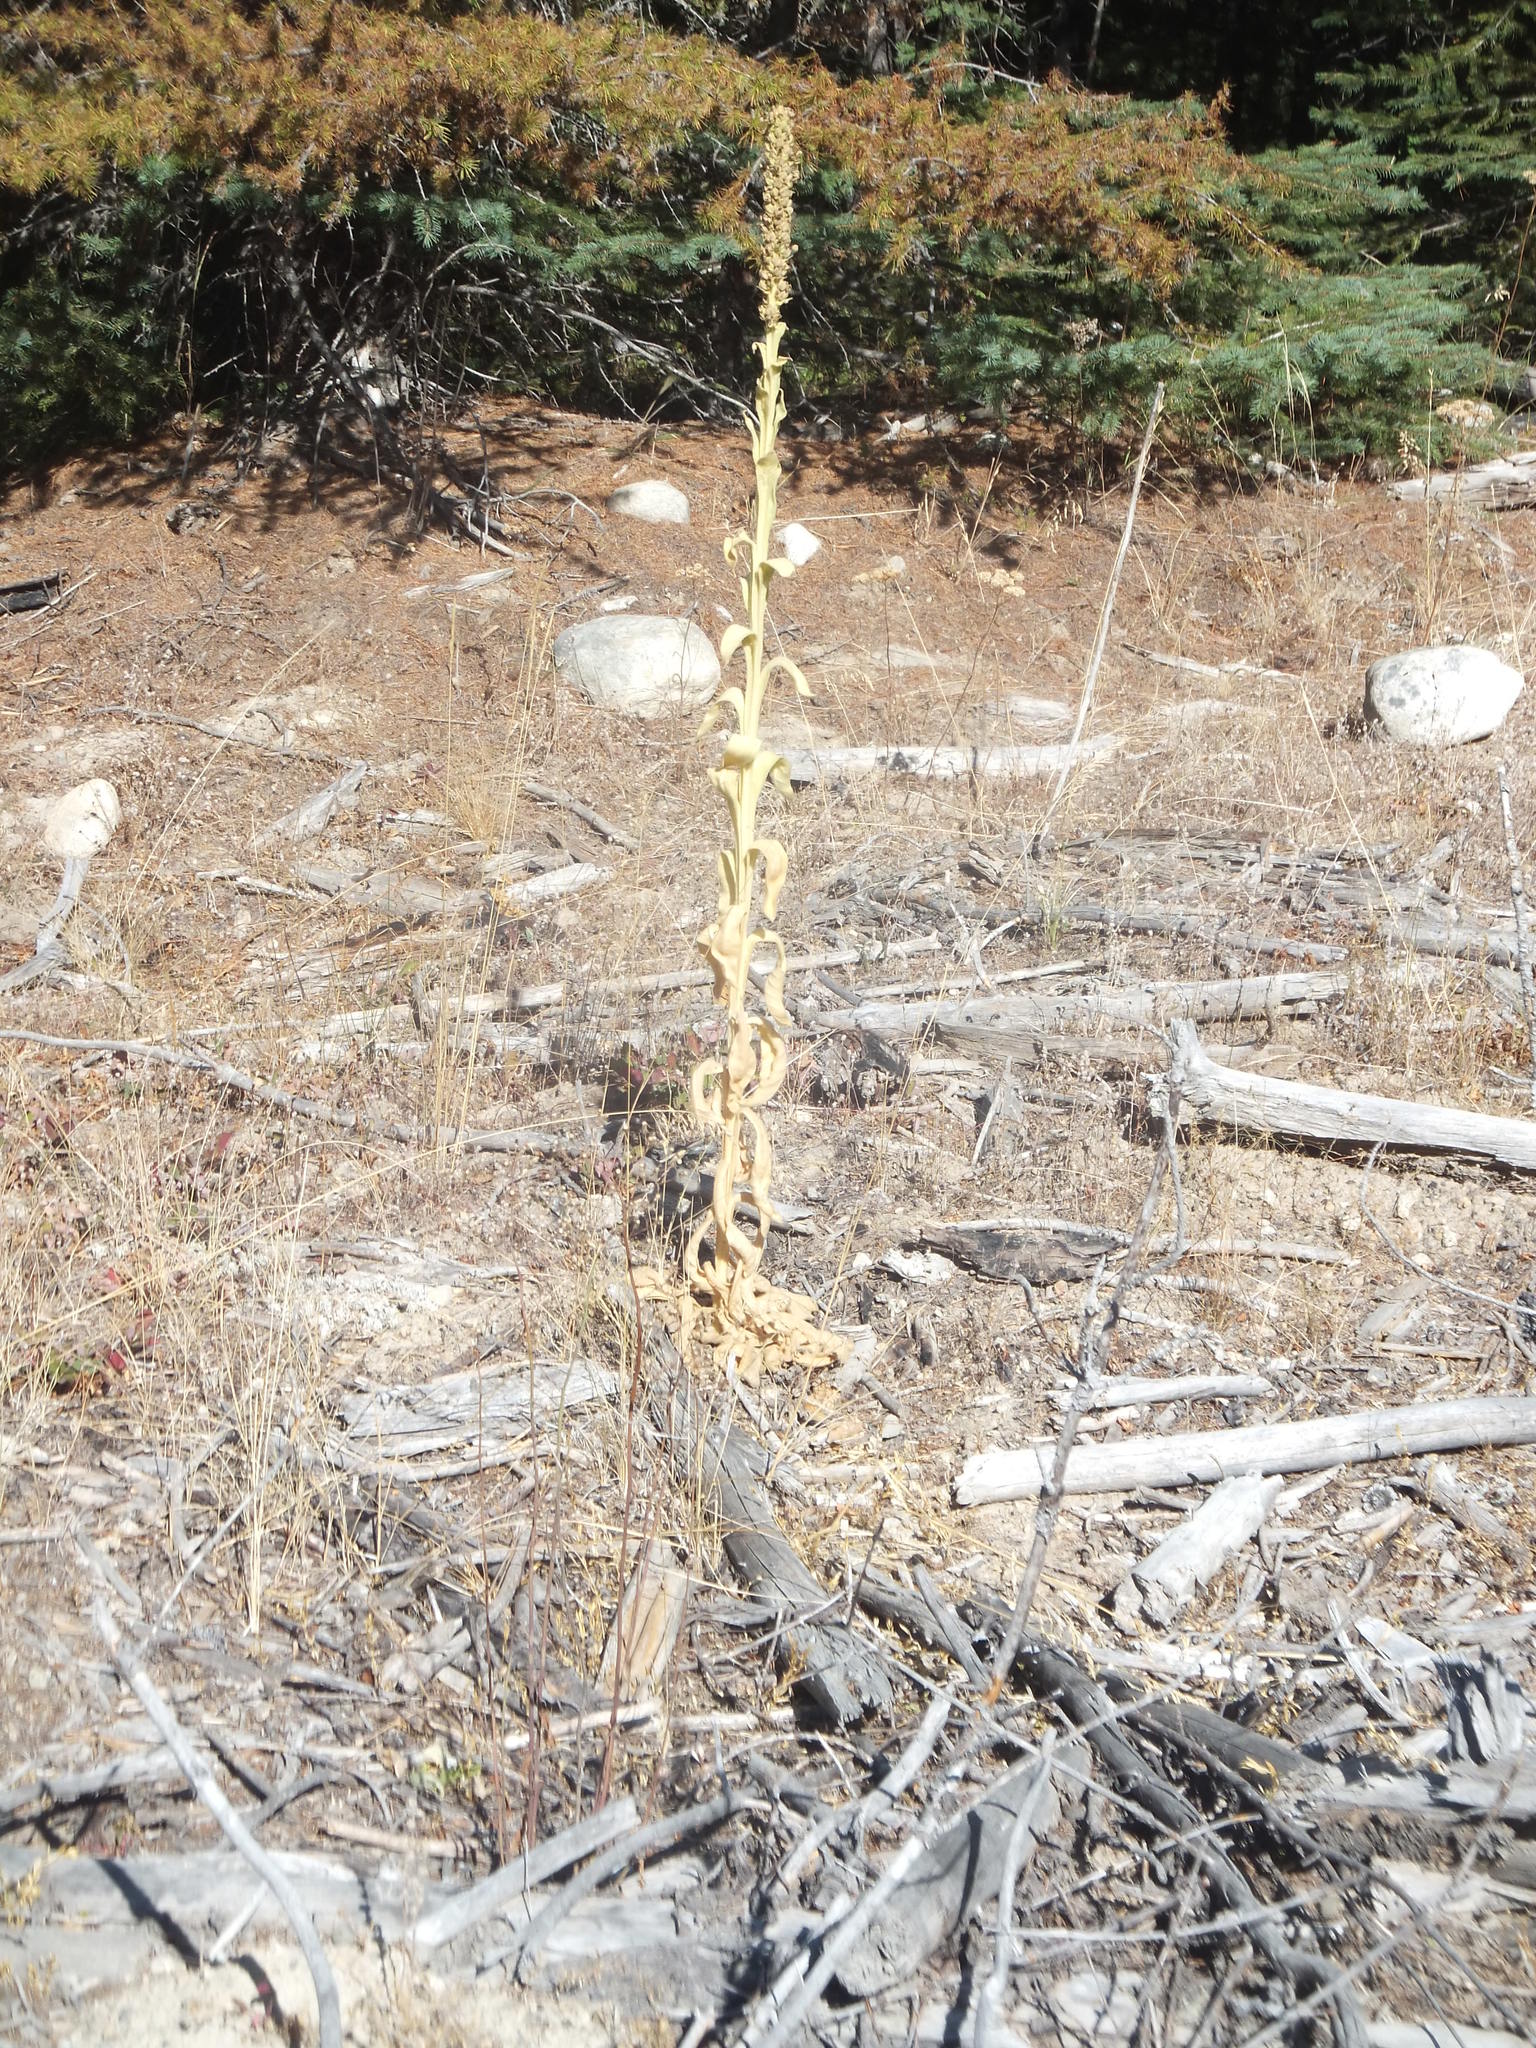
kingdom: Plantae
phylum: Tracheophyta
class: Magnoliopsida
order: Lamiales
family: Scrophulariaceae
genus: Verbascum
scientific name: Verbascum thapsus
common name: Common mullein
